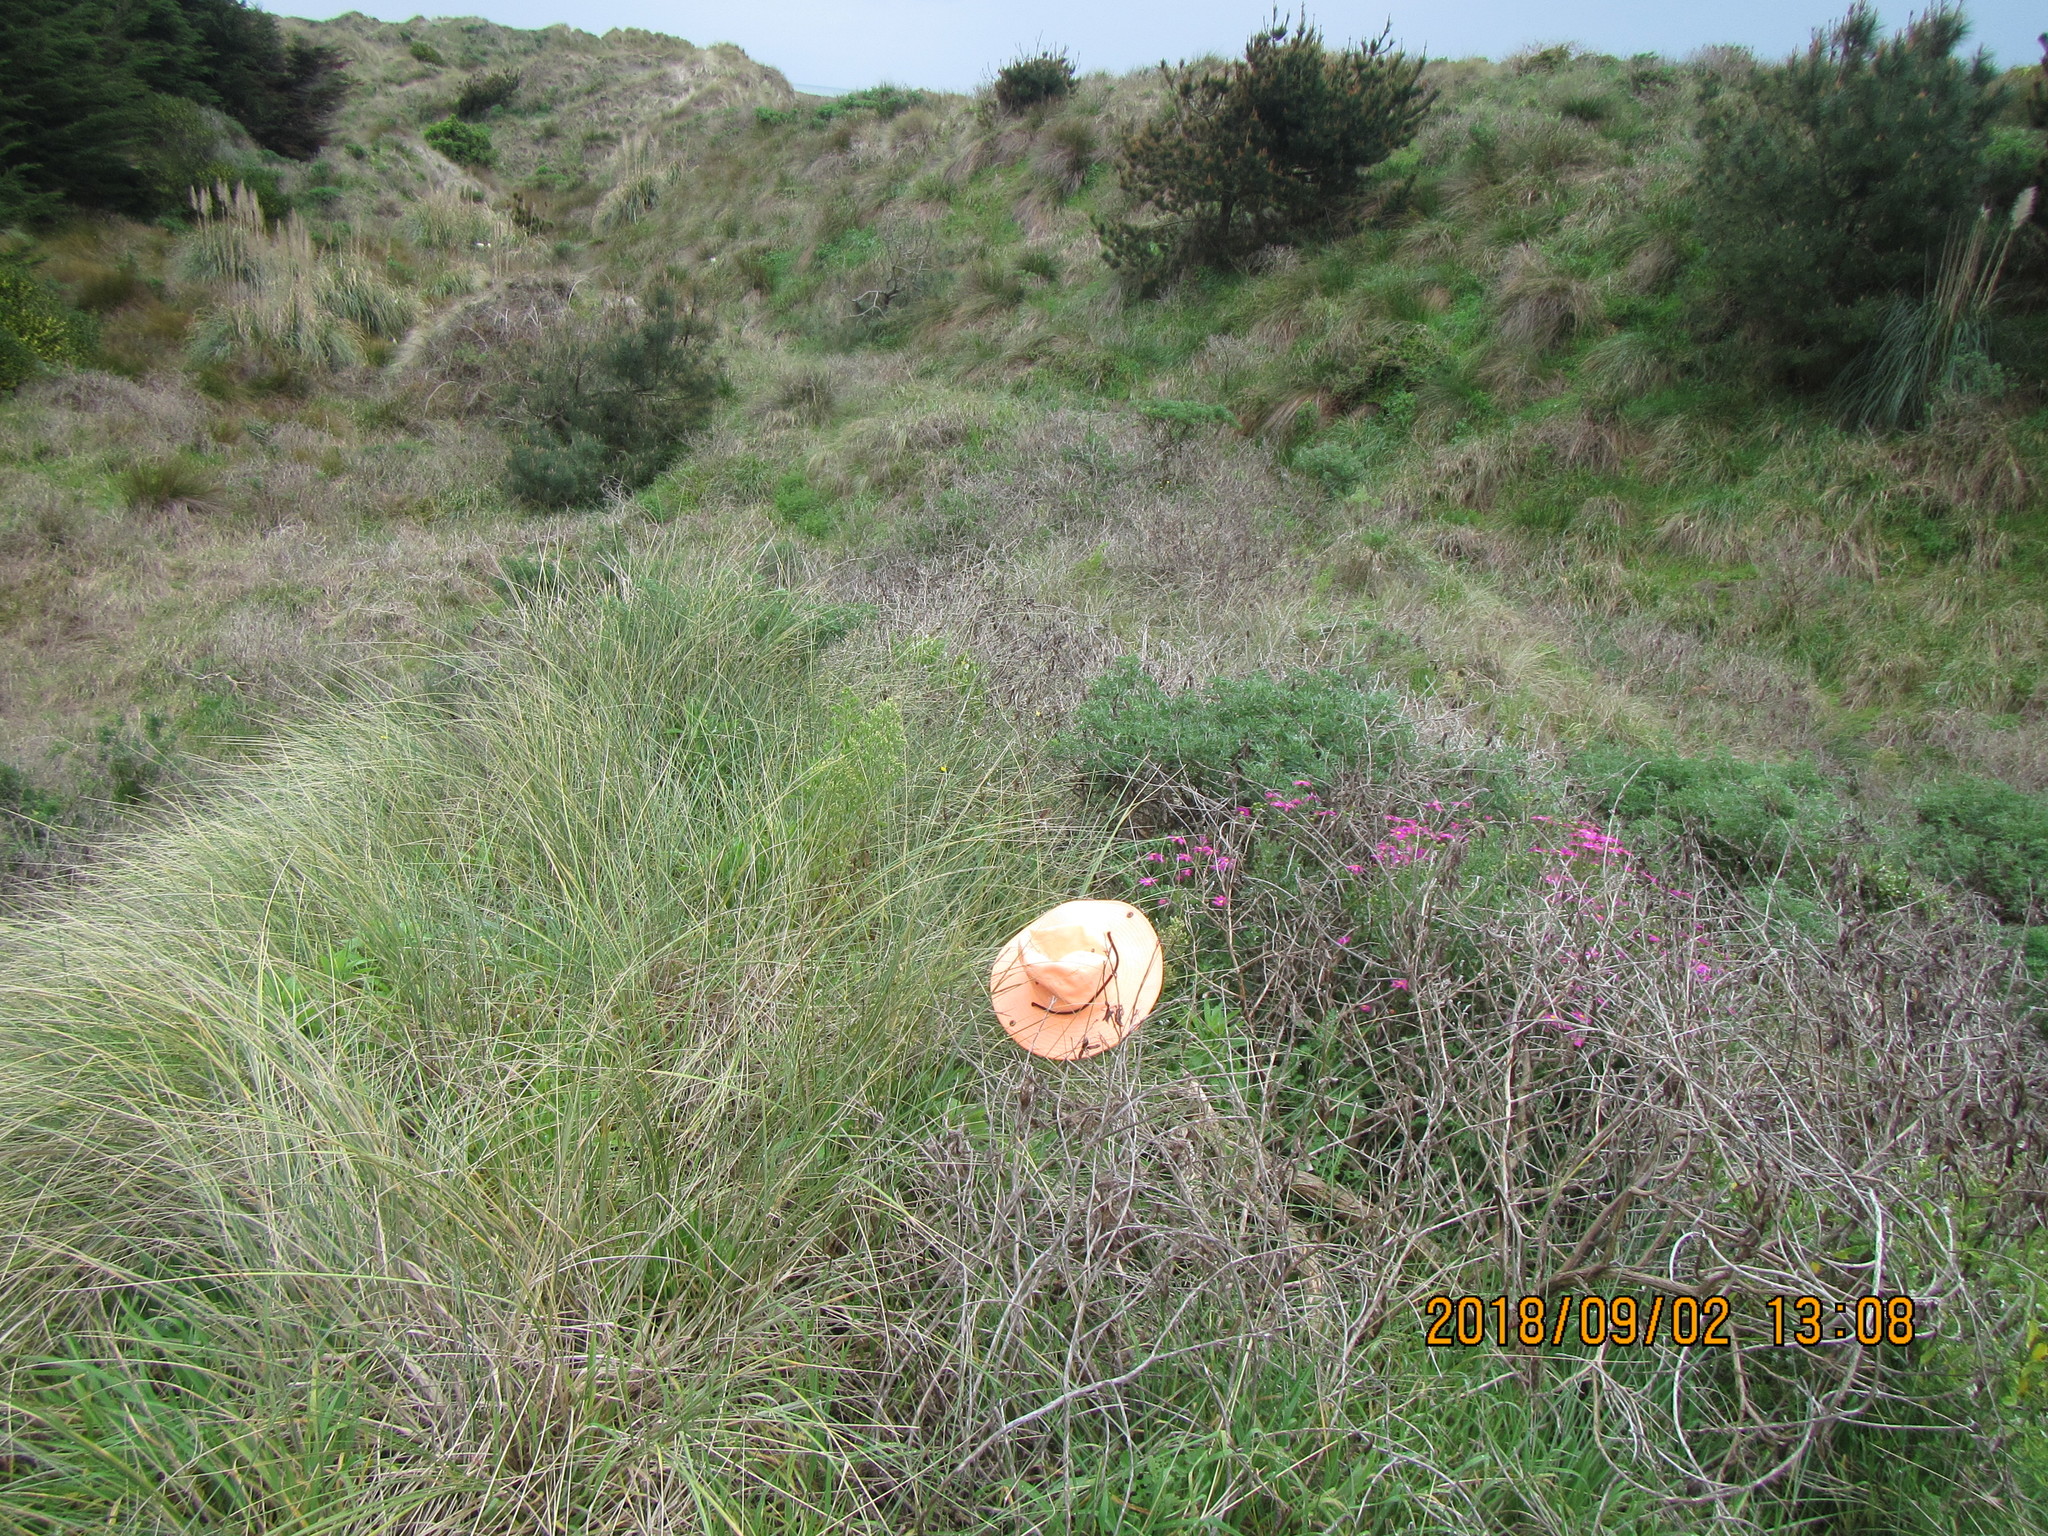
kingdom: Plantae
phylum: Tracheophyta
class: Magnoliopsida
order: Asterales
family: Asteraceae
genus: Senecio
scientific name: Senecio elegans
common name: Purple groundsel
